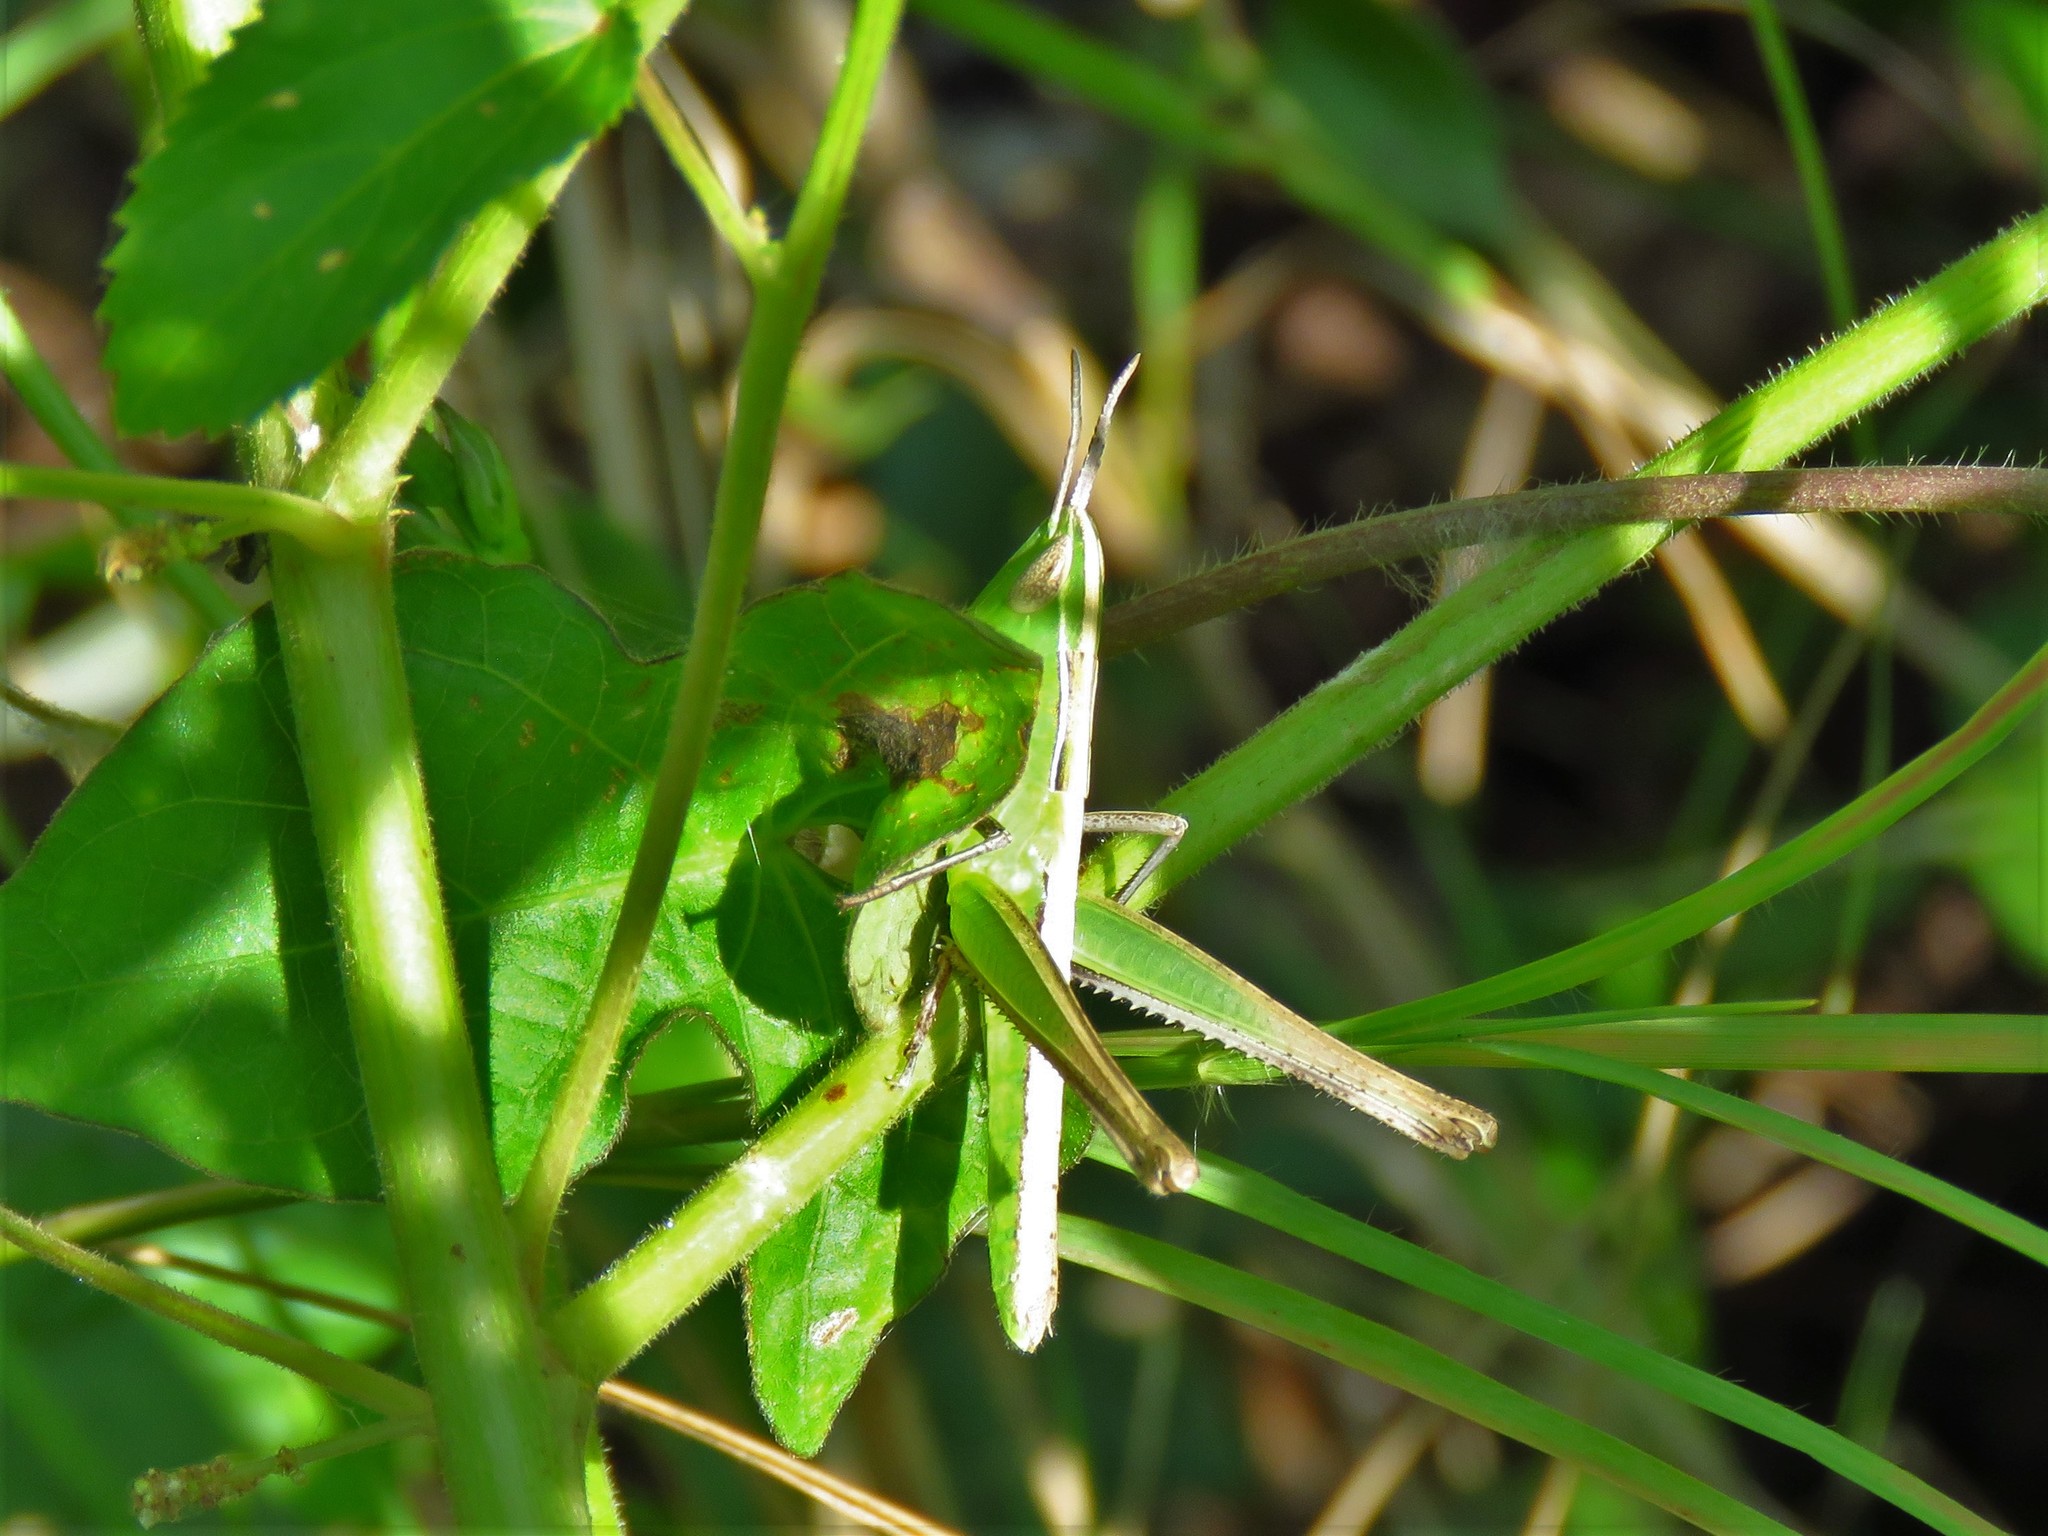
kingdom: Animalia
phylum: Arthropoda
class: Insecta
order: Orthoptera
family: Acrididae
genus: Syrbula
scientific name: Syrbula admirabilis
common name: Handsome grasshopper
